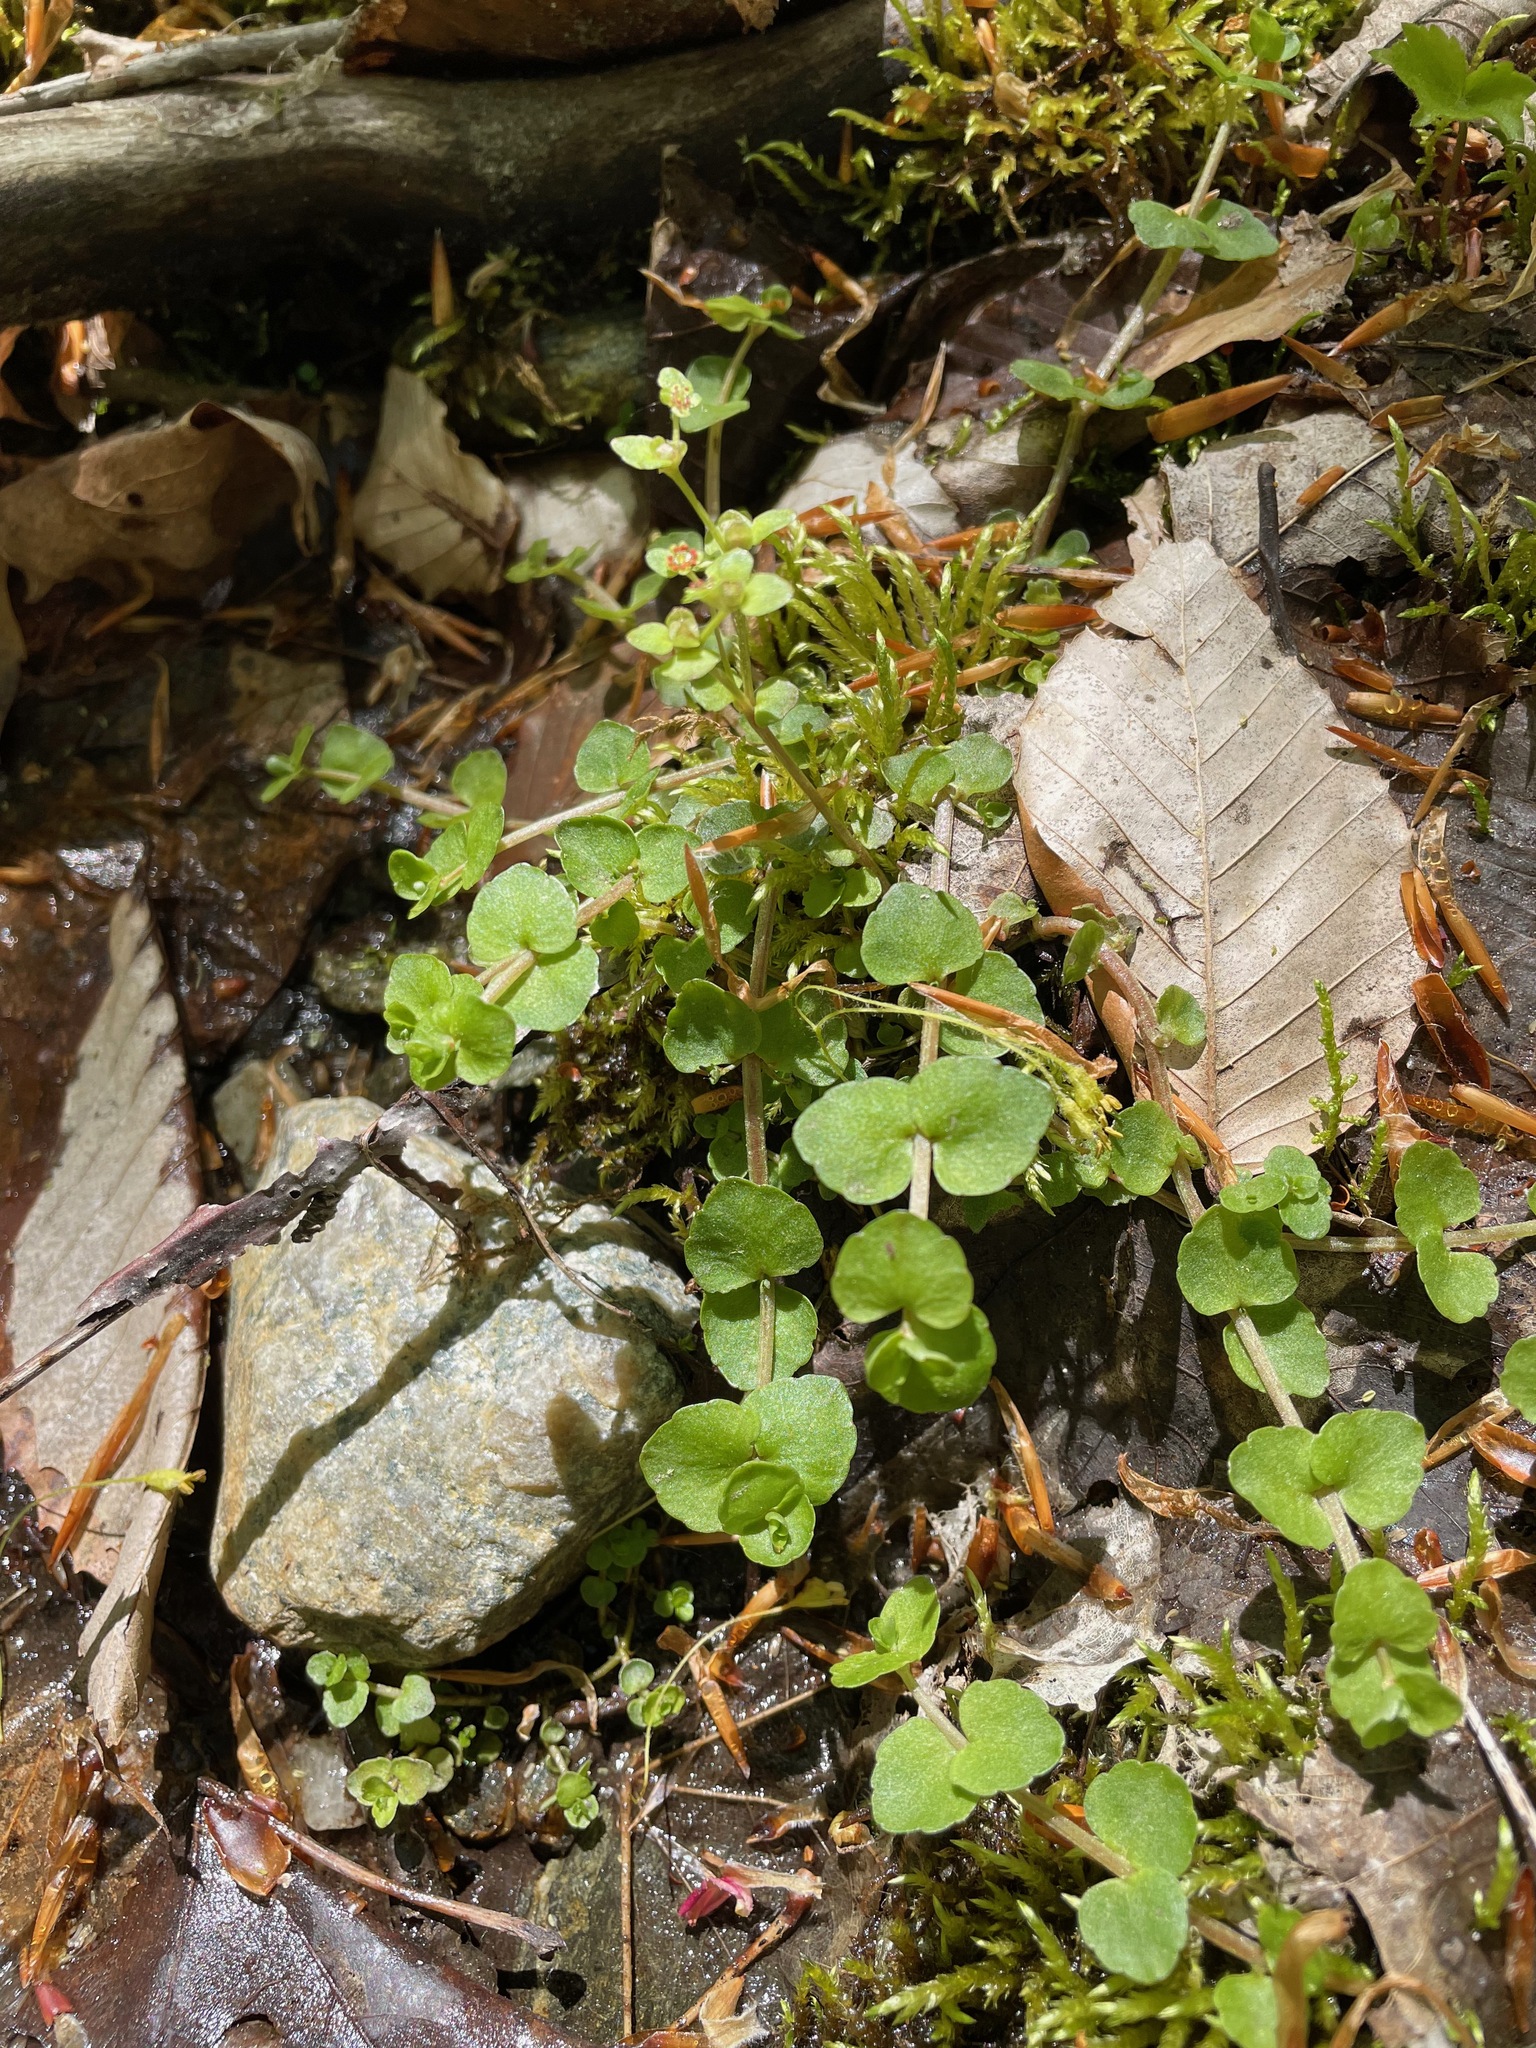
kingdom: Plantae
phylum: Tracheophyta
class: Magnoliopsida
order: Saxifragales
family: Saxifragaceae
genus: Chrysosplenium
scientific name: Chrysosplenium americanum
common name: American golden-saxifrage
